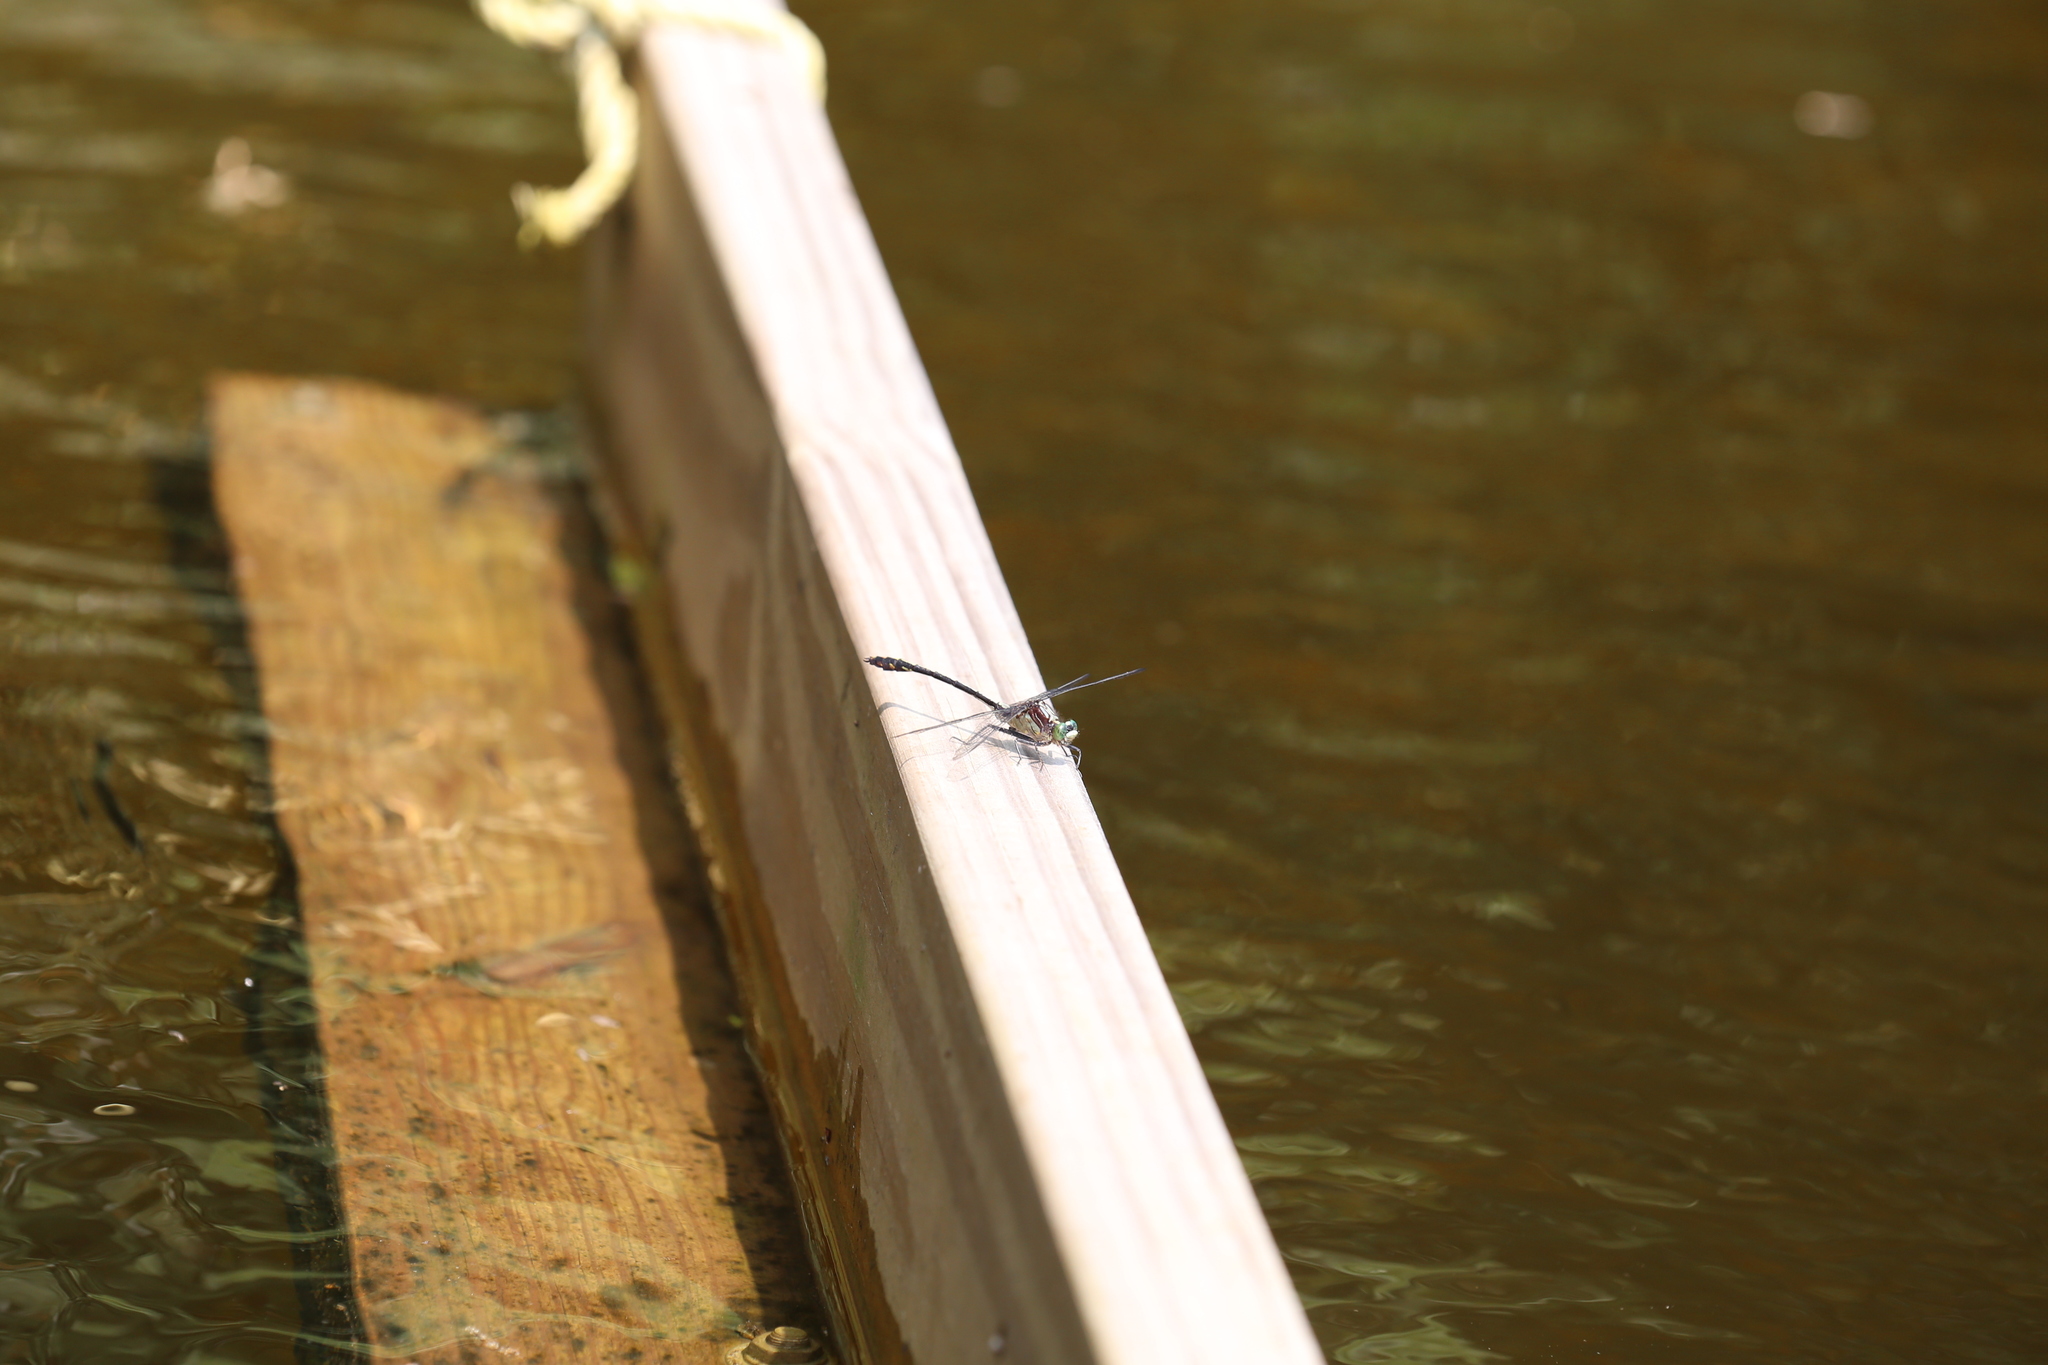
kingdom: Animalia
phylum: Arthropoda
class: Insecta
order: Odonata
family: Gomphidae
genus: Dromogomphus
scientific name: Dromogomphus spinosus
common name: Black-shouldered spinyleg
